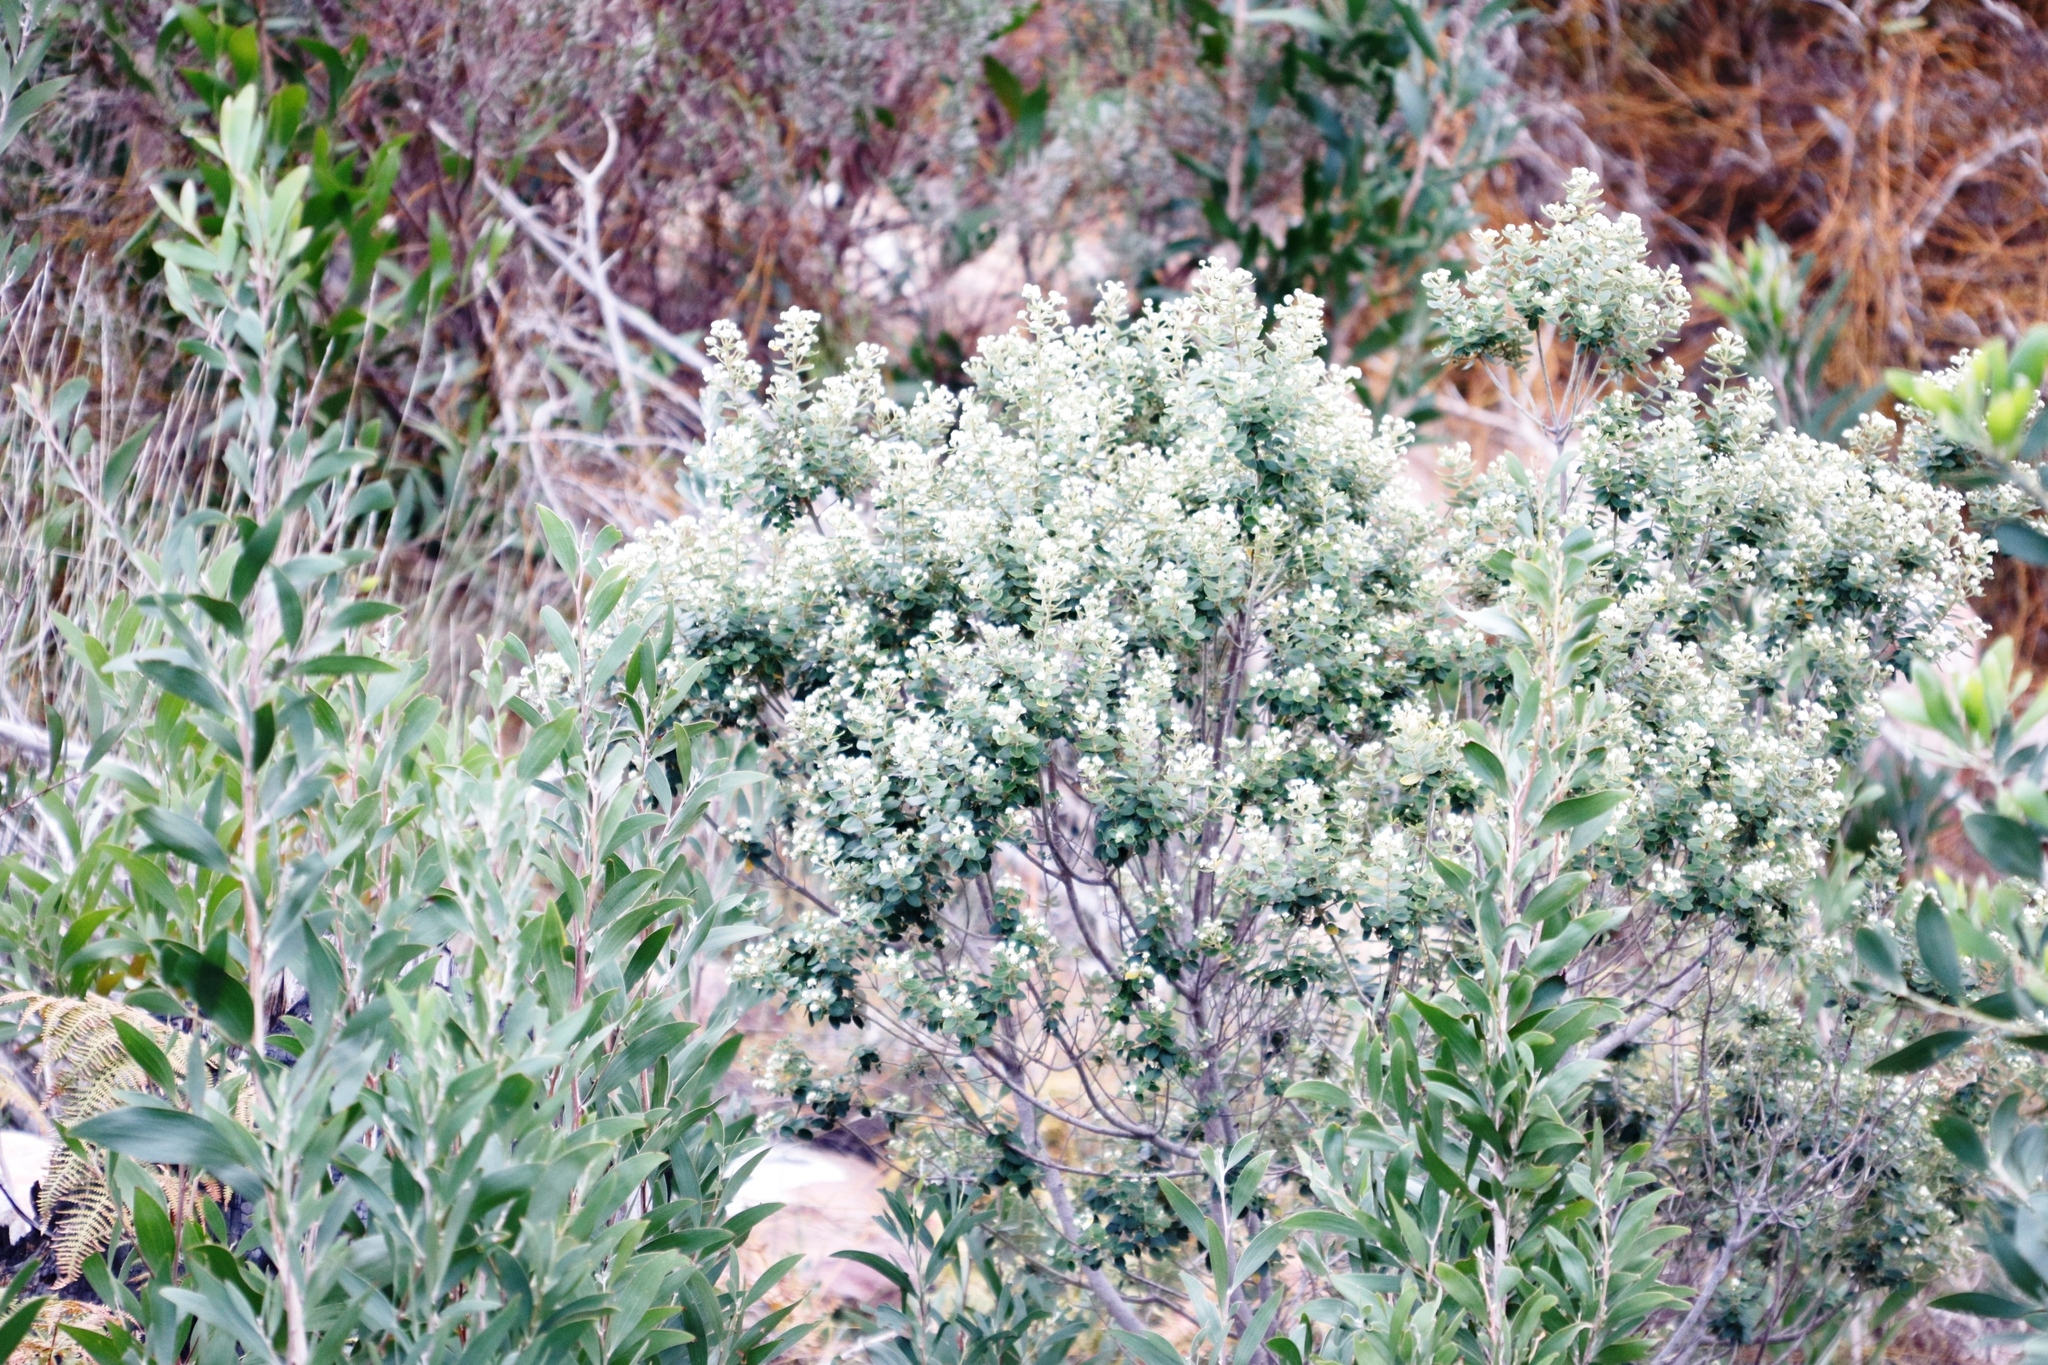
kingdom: Plantae
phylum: Tracheophyta
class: Magnoliopsida
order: Rosales
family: Rhamnaceae
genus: Phylica
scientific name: Phylica buxifolia
